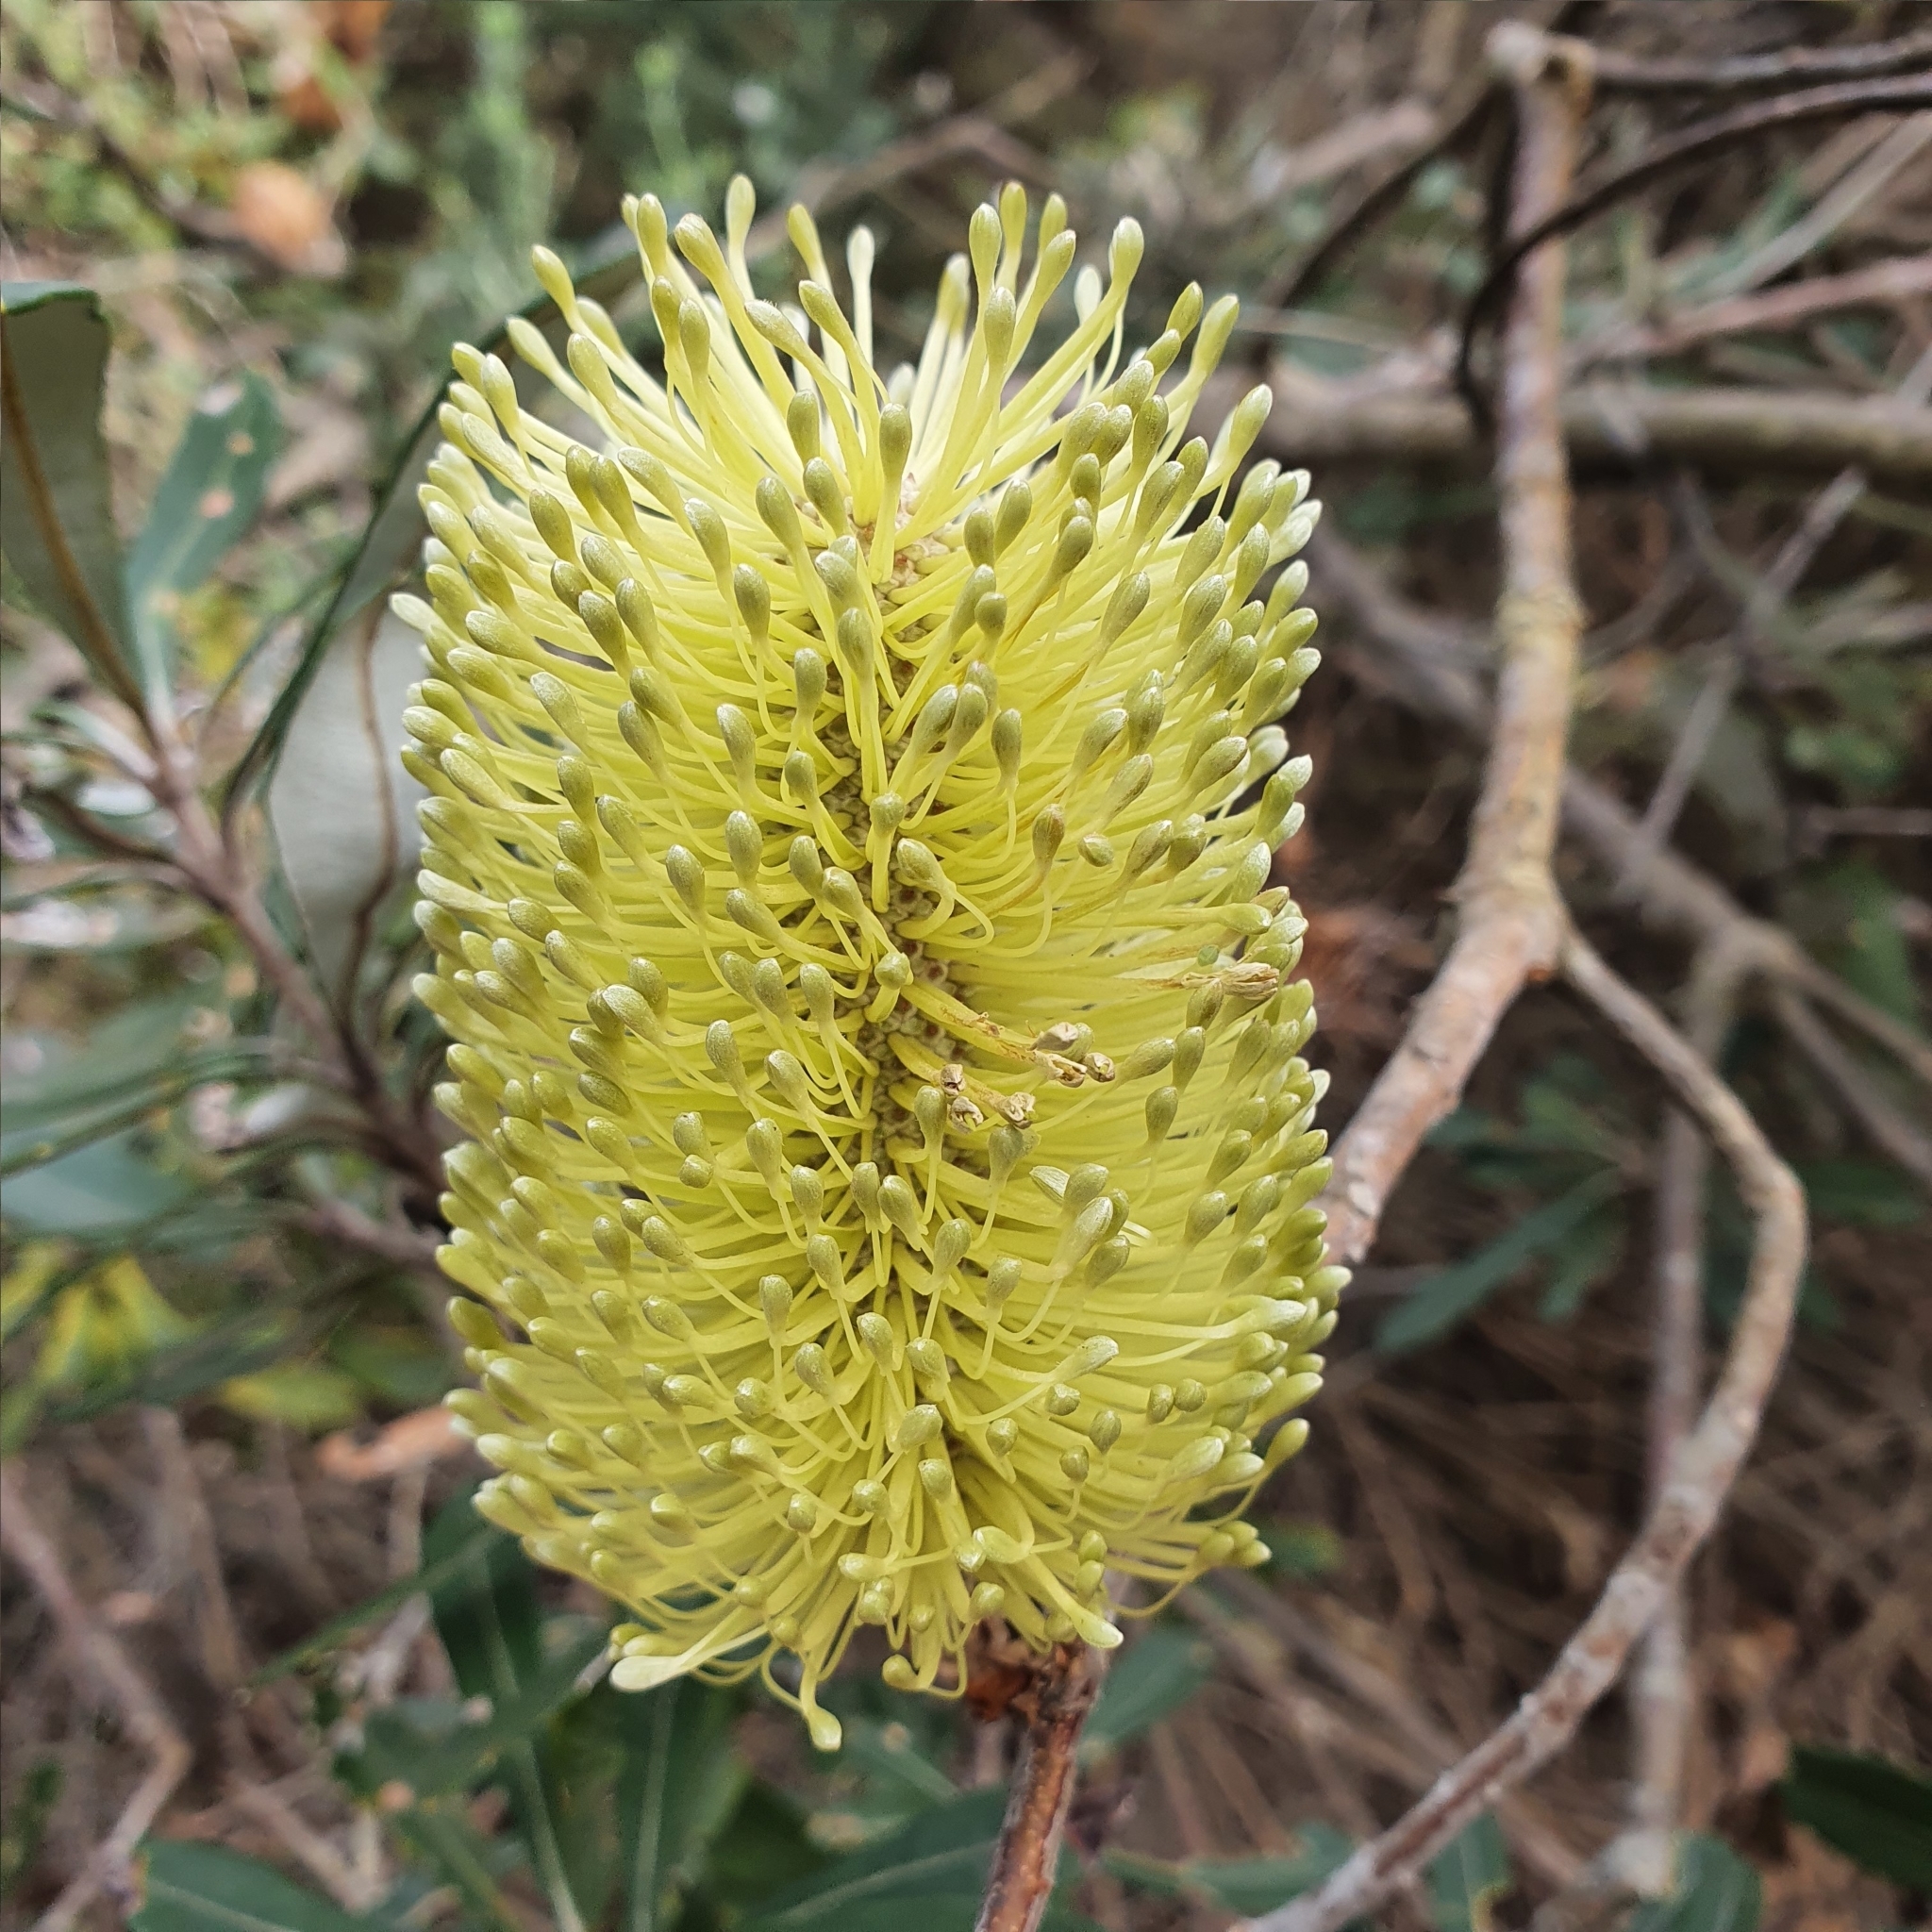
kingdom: Plantae
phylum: Tracheophyta
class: Magnoliopsida
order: Proteales
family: Proteaceae
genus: Banksia
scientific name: Banksia integrifolia
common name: White-honeysuckle
